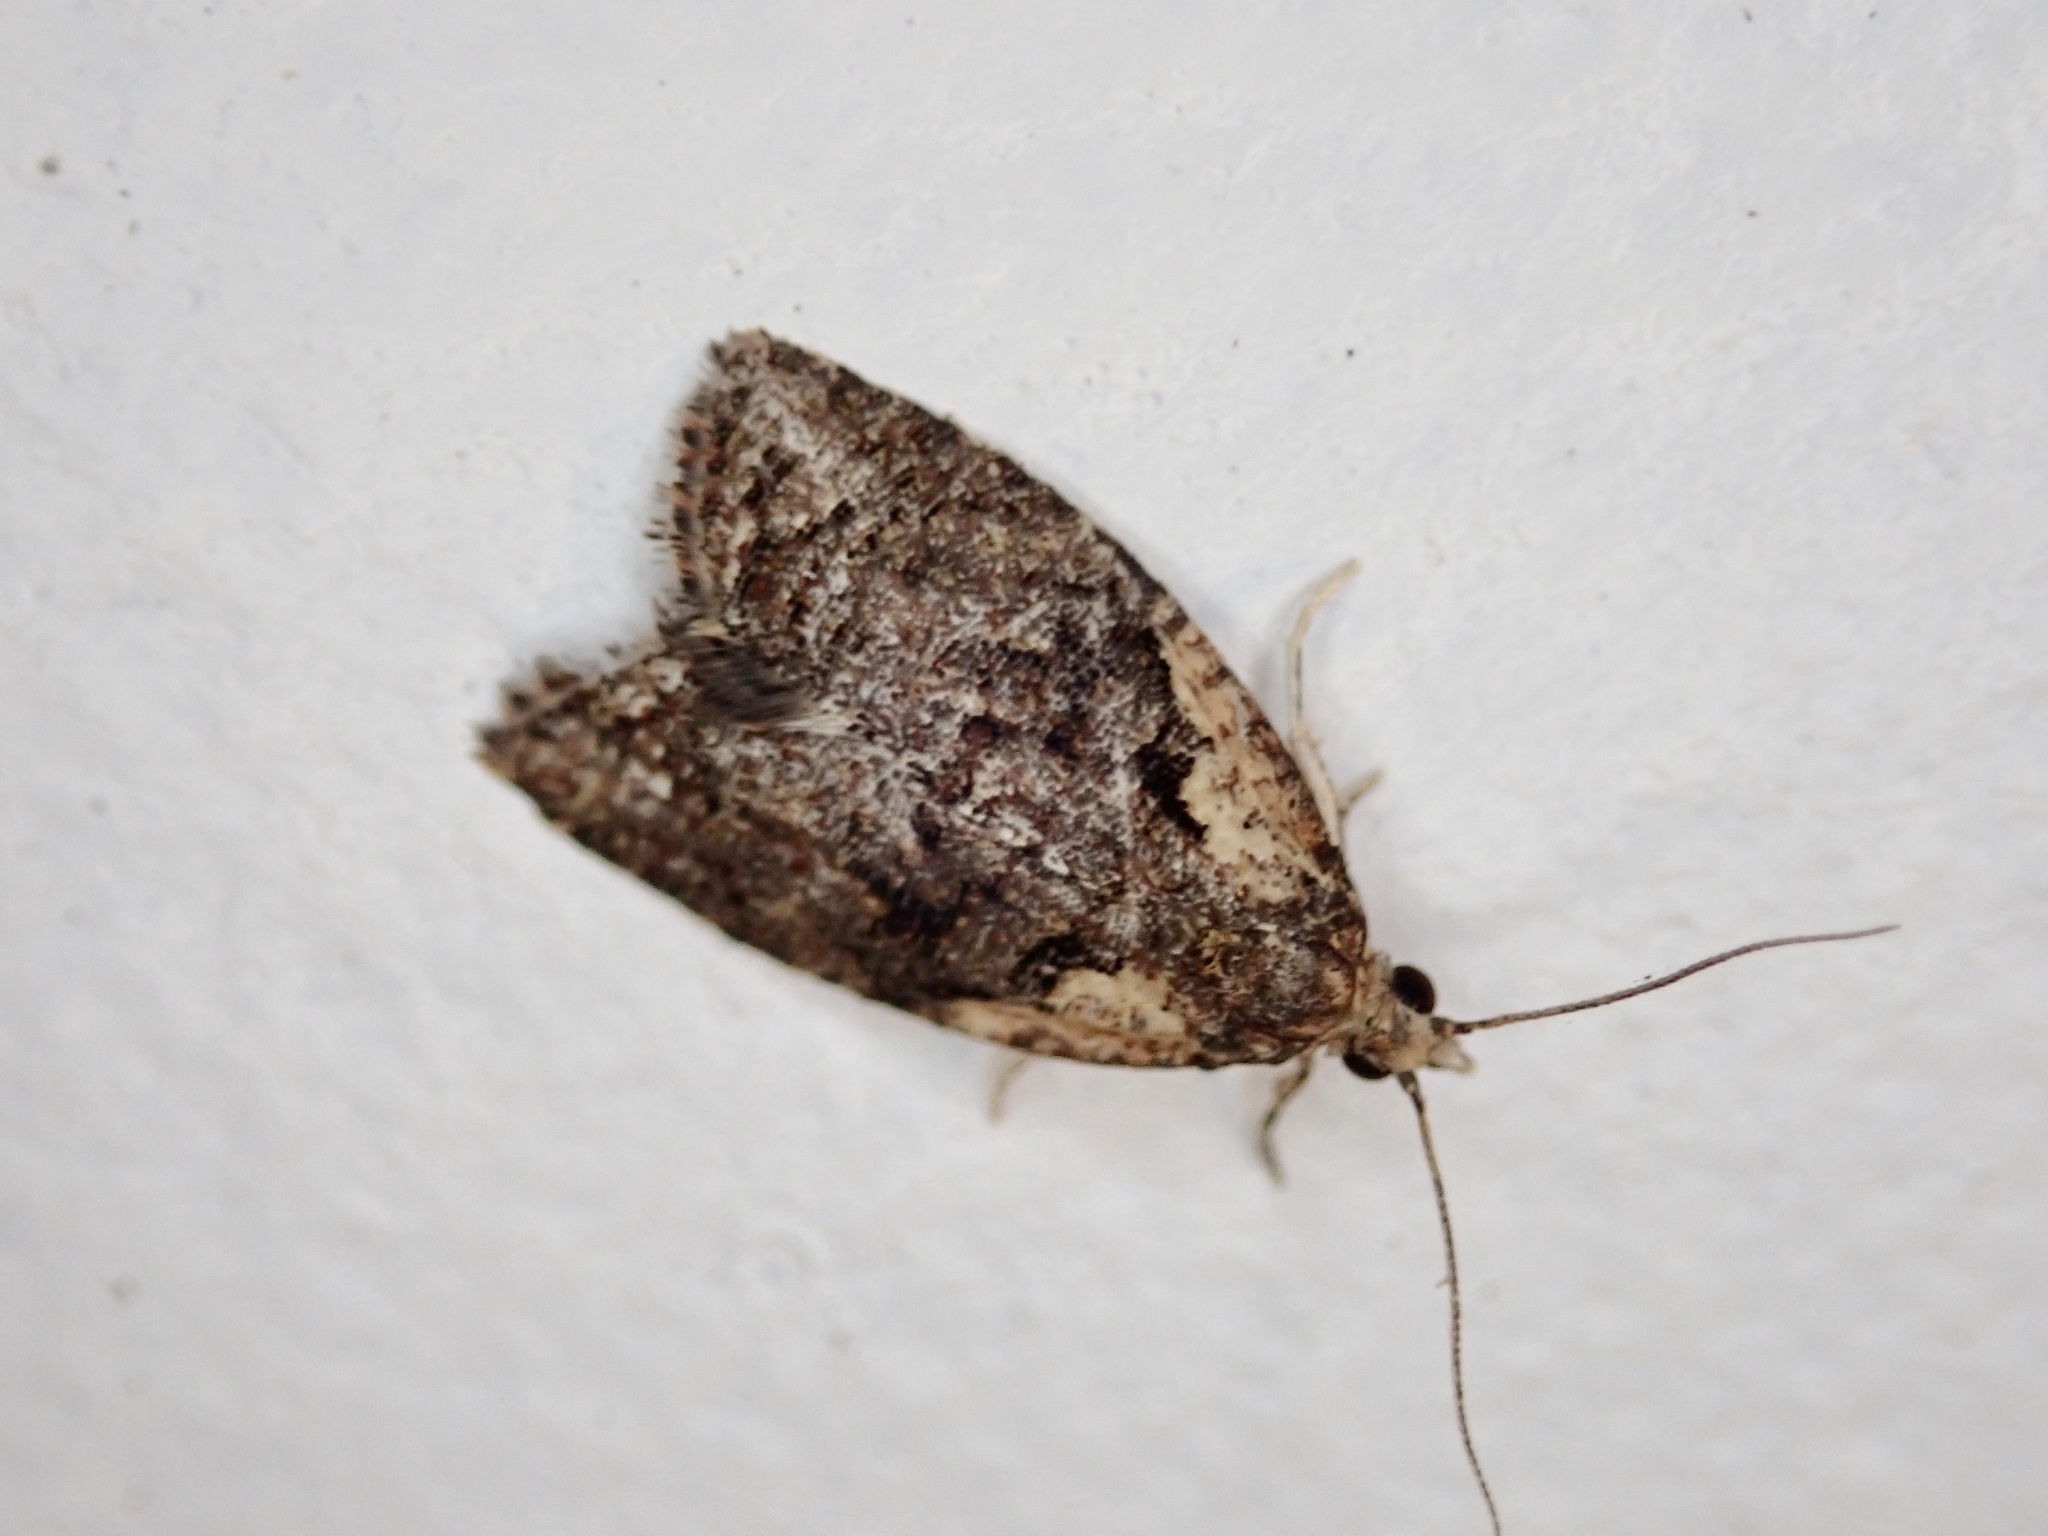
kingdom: Animalia
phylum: Arthropoda
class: Insecta
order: Lepidoptera
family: Tortricidae
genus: Capua
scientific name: Capua intractana
